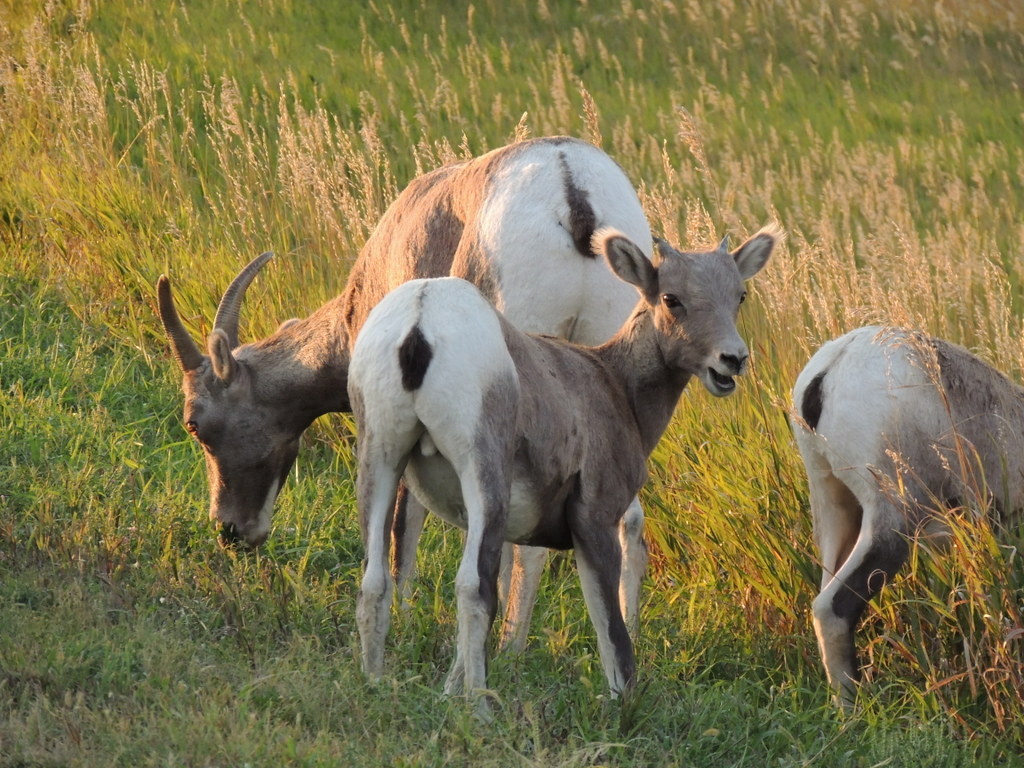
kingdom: Animalia
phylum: Chordata
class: Mammalia
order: Artiodactyla
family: Bovidae
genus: Ovis
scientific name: Ovis canadensis
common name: Bighorn sheep
